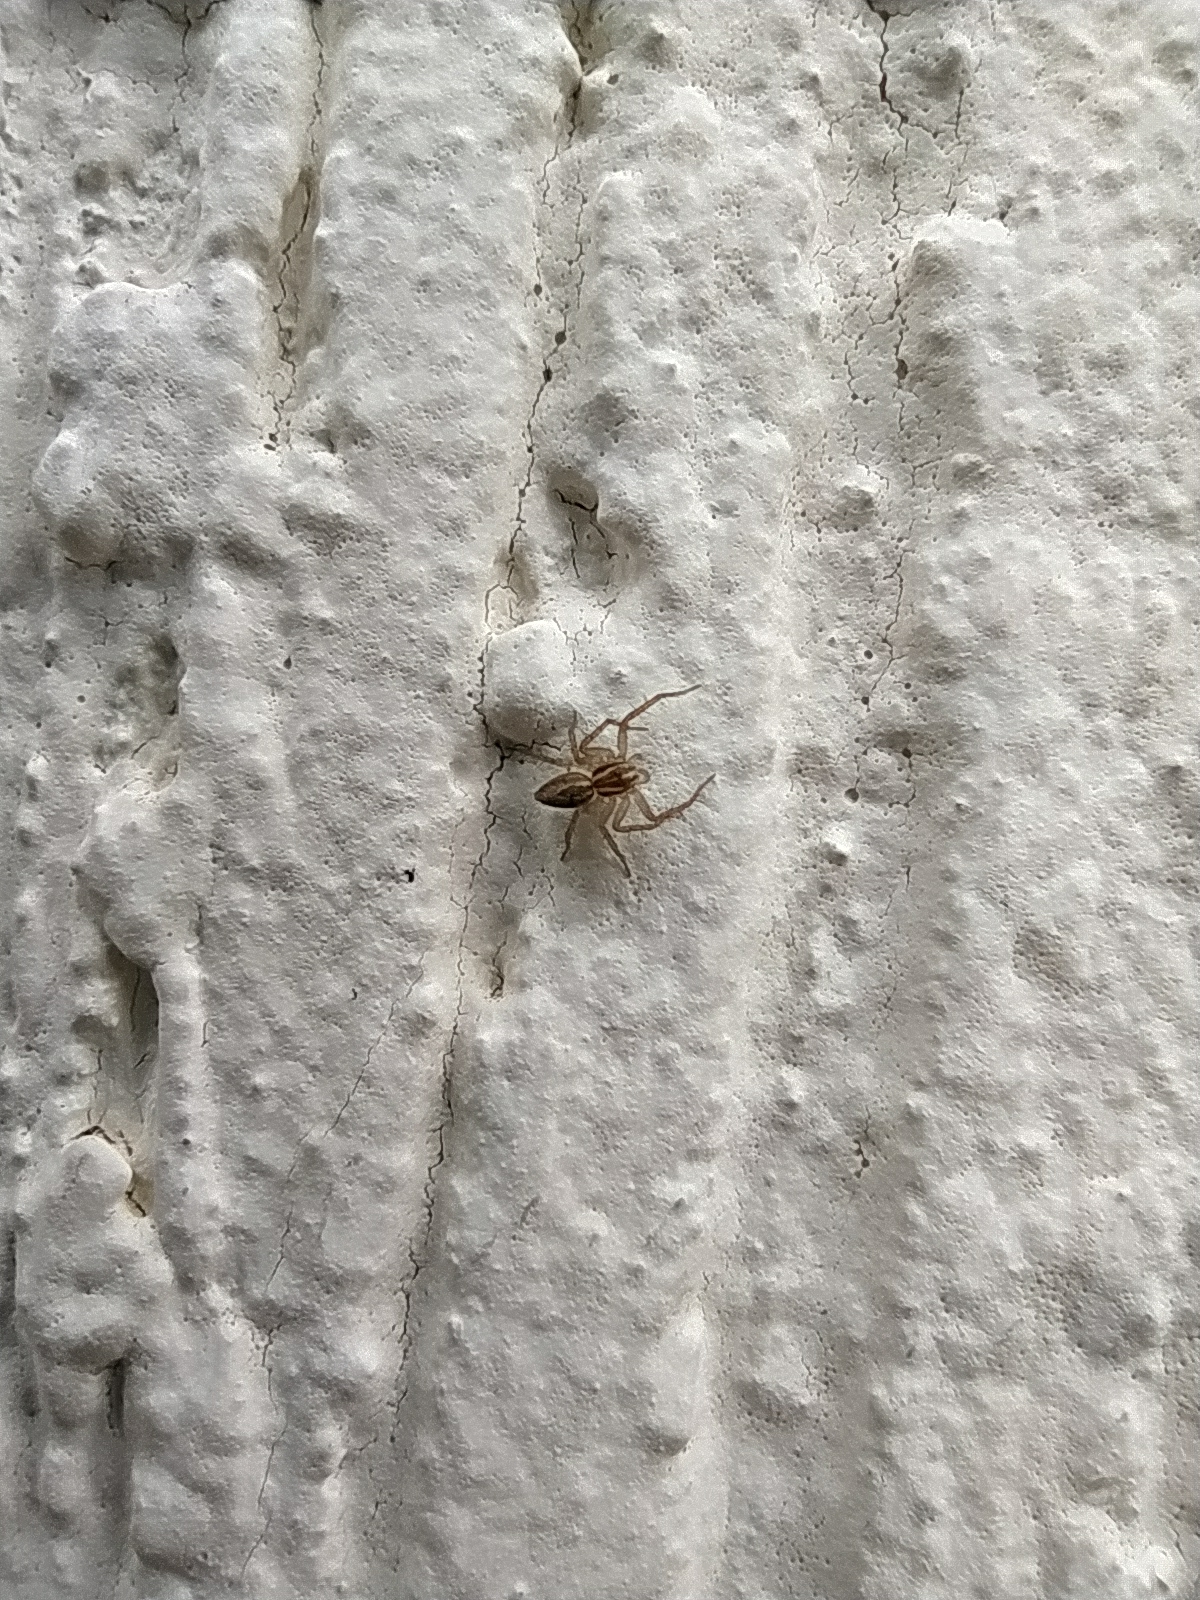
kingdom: Animalia
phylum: Arthropoda
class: Arachnida
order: Araneae
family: Oxyopidae
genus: Oxyopes
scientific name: Oxyopes lineatus
